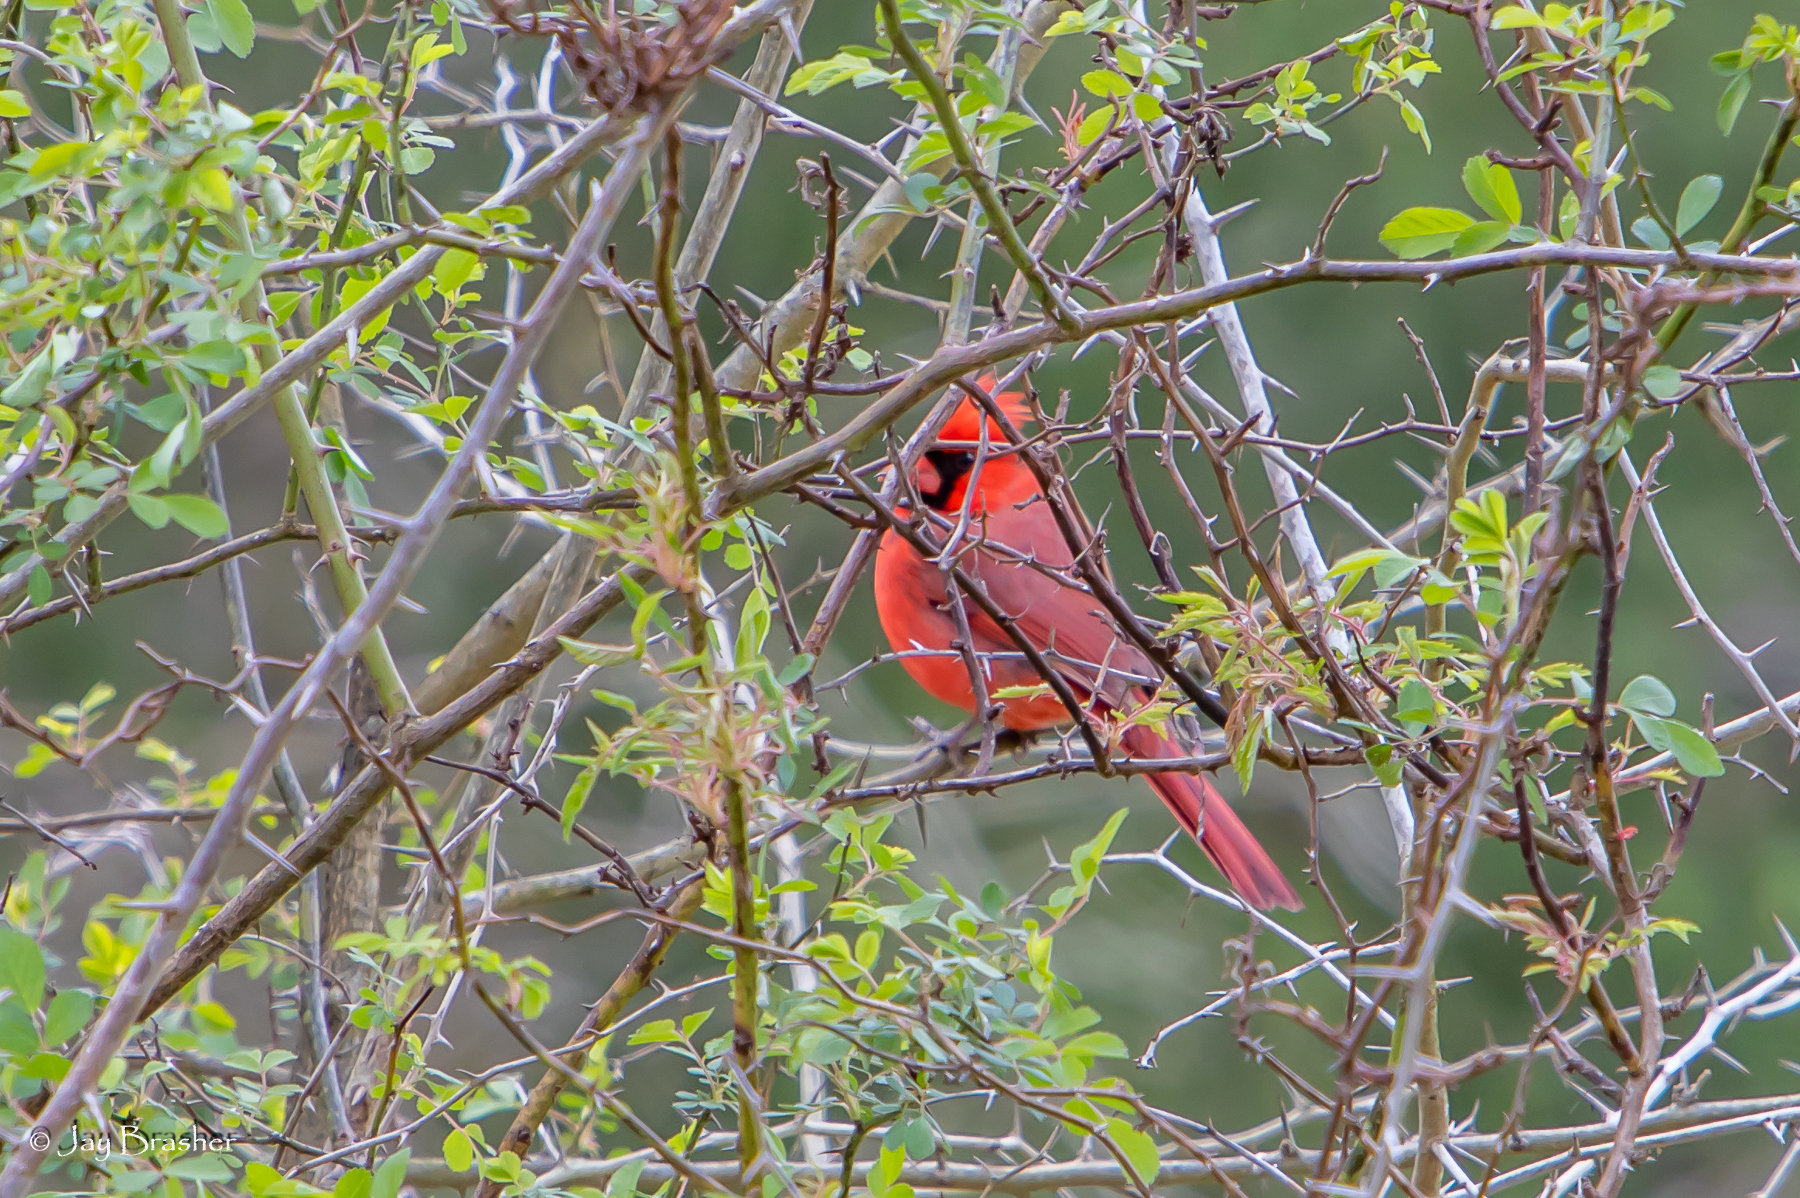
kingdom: Animalia
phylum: Chordata
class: Aves
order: Passeriformes
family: Cardinalidae
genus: Cardinalis
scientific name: Cardinalis cardinalis
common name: Northern cardinal
